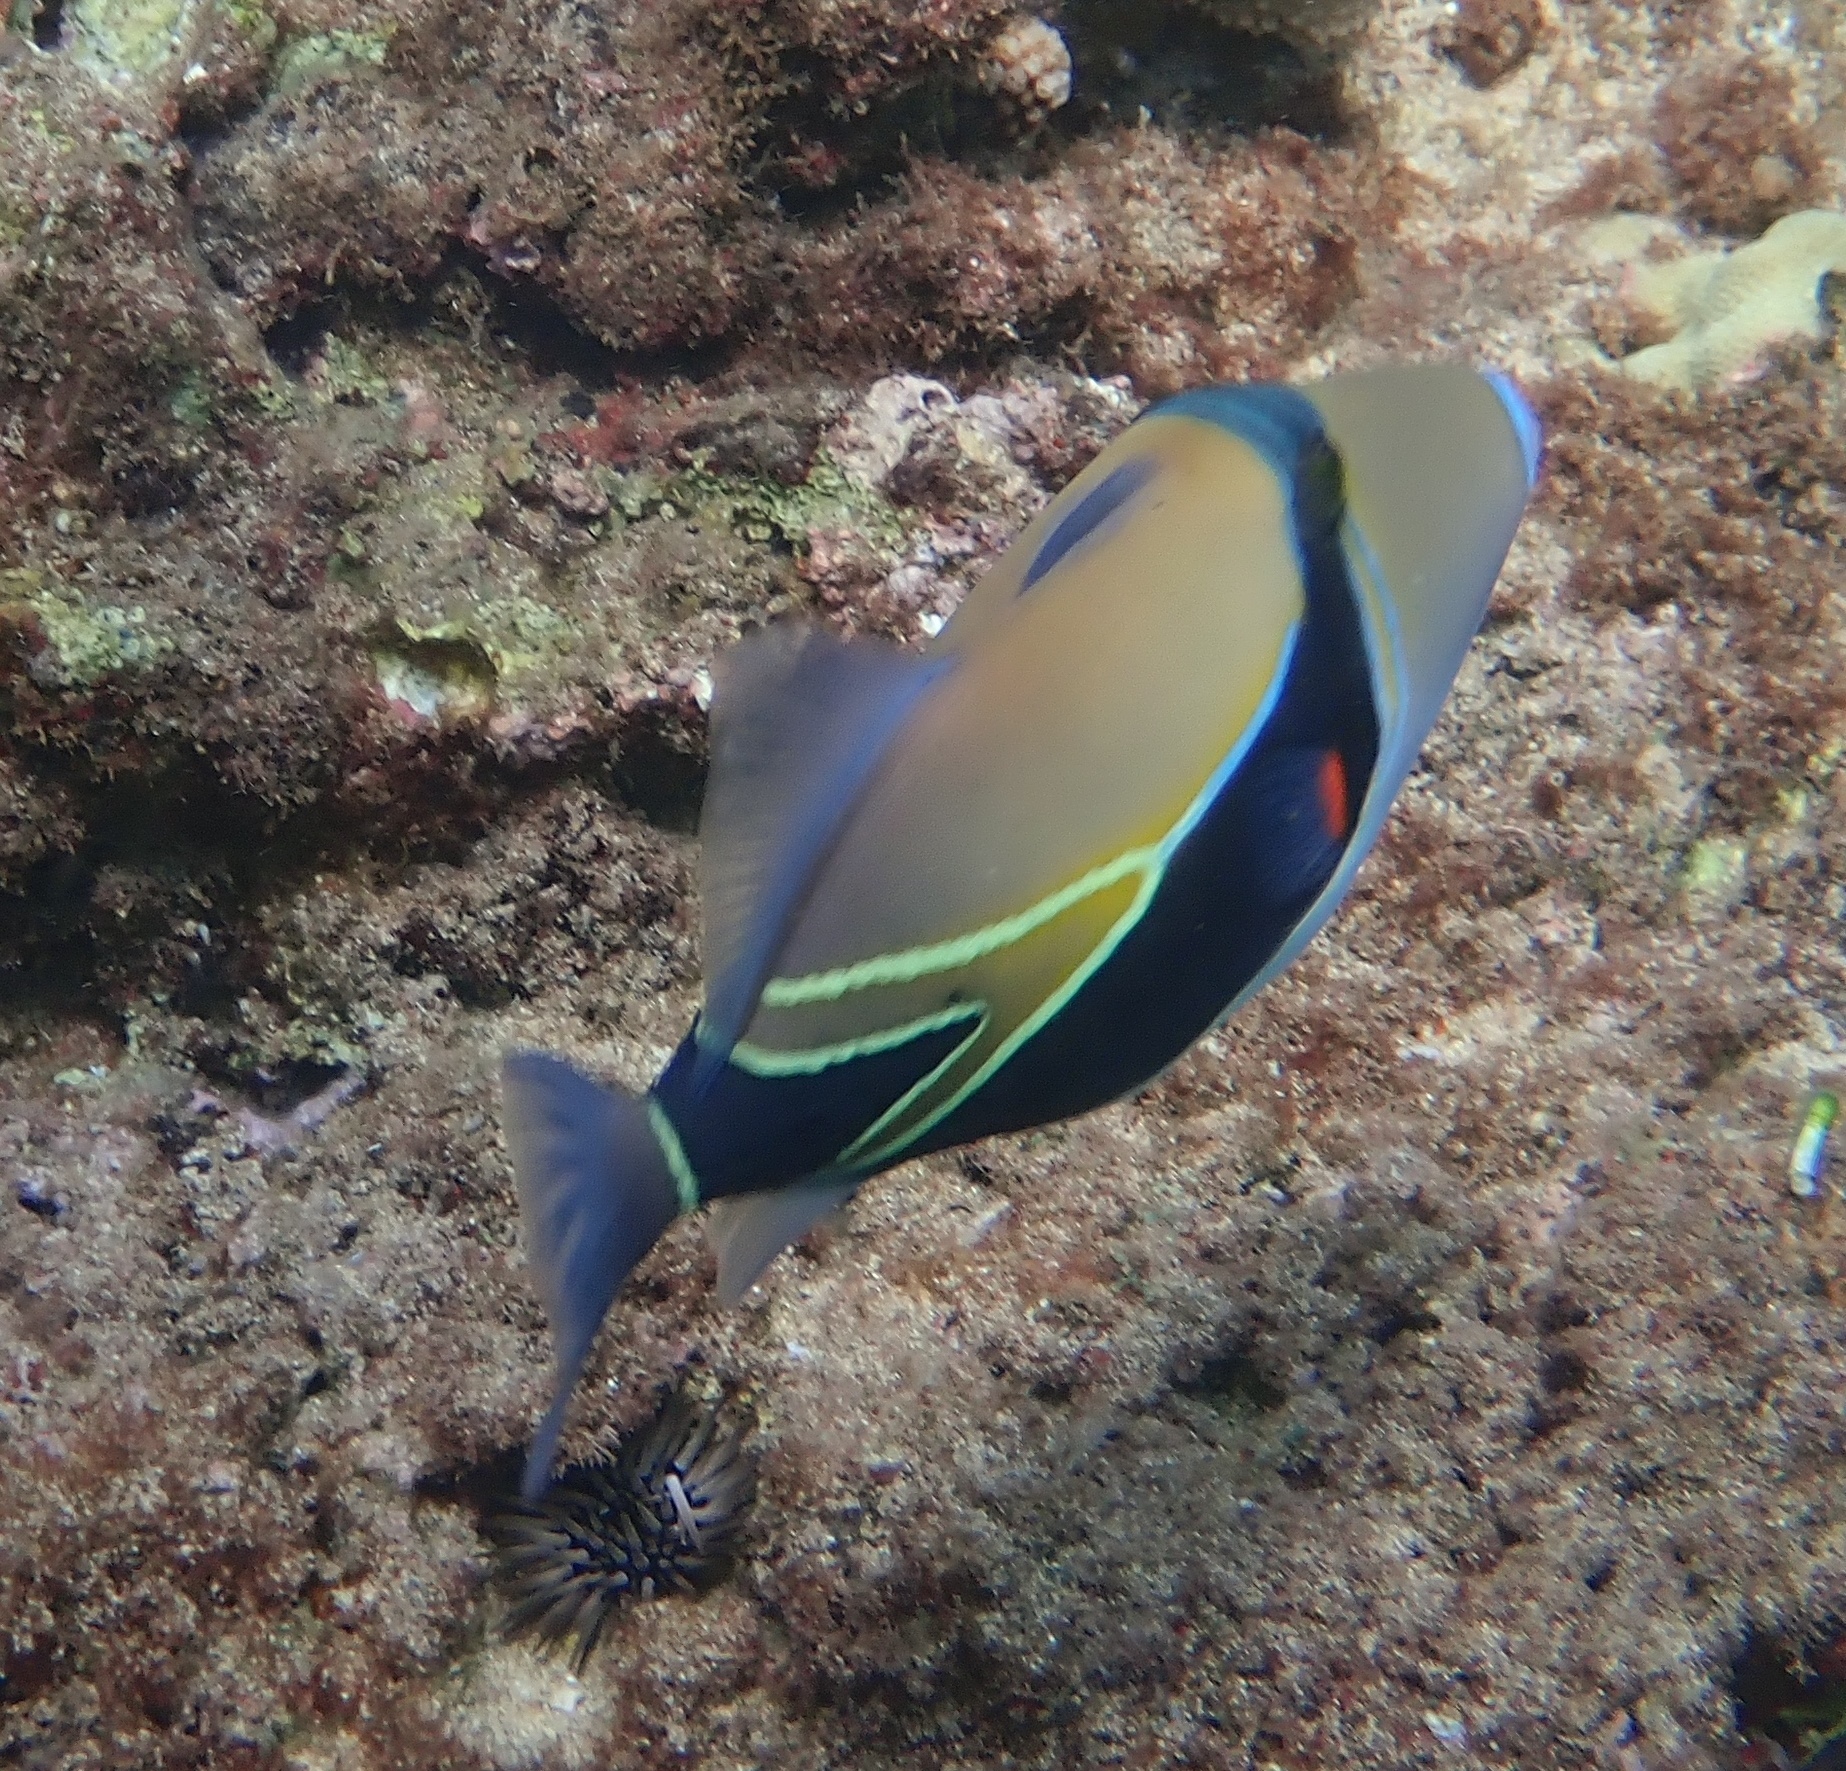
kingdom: Animalia
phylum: Chordata
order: Tetraodontiformes
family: Balistidae
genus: Rhinecanthus
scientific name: Rhinecanthus rectangulus
